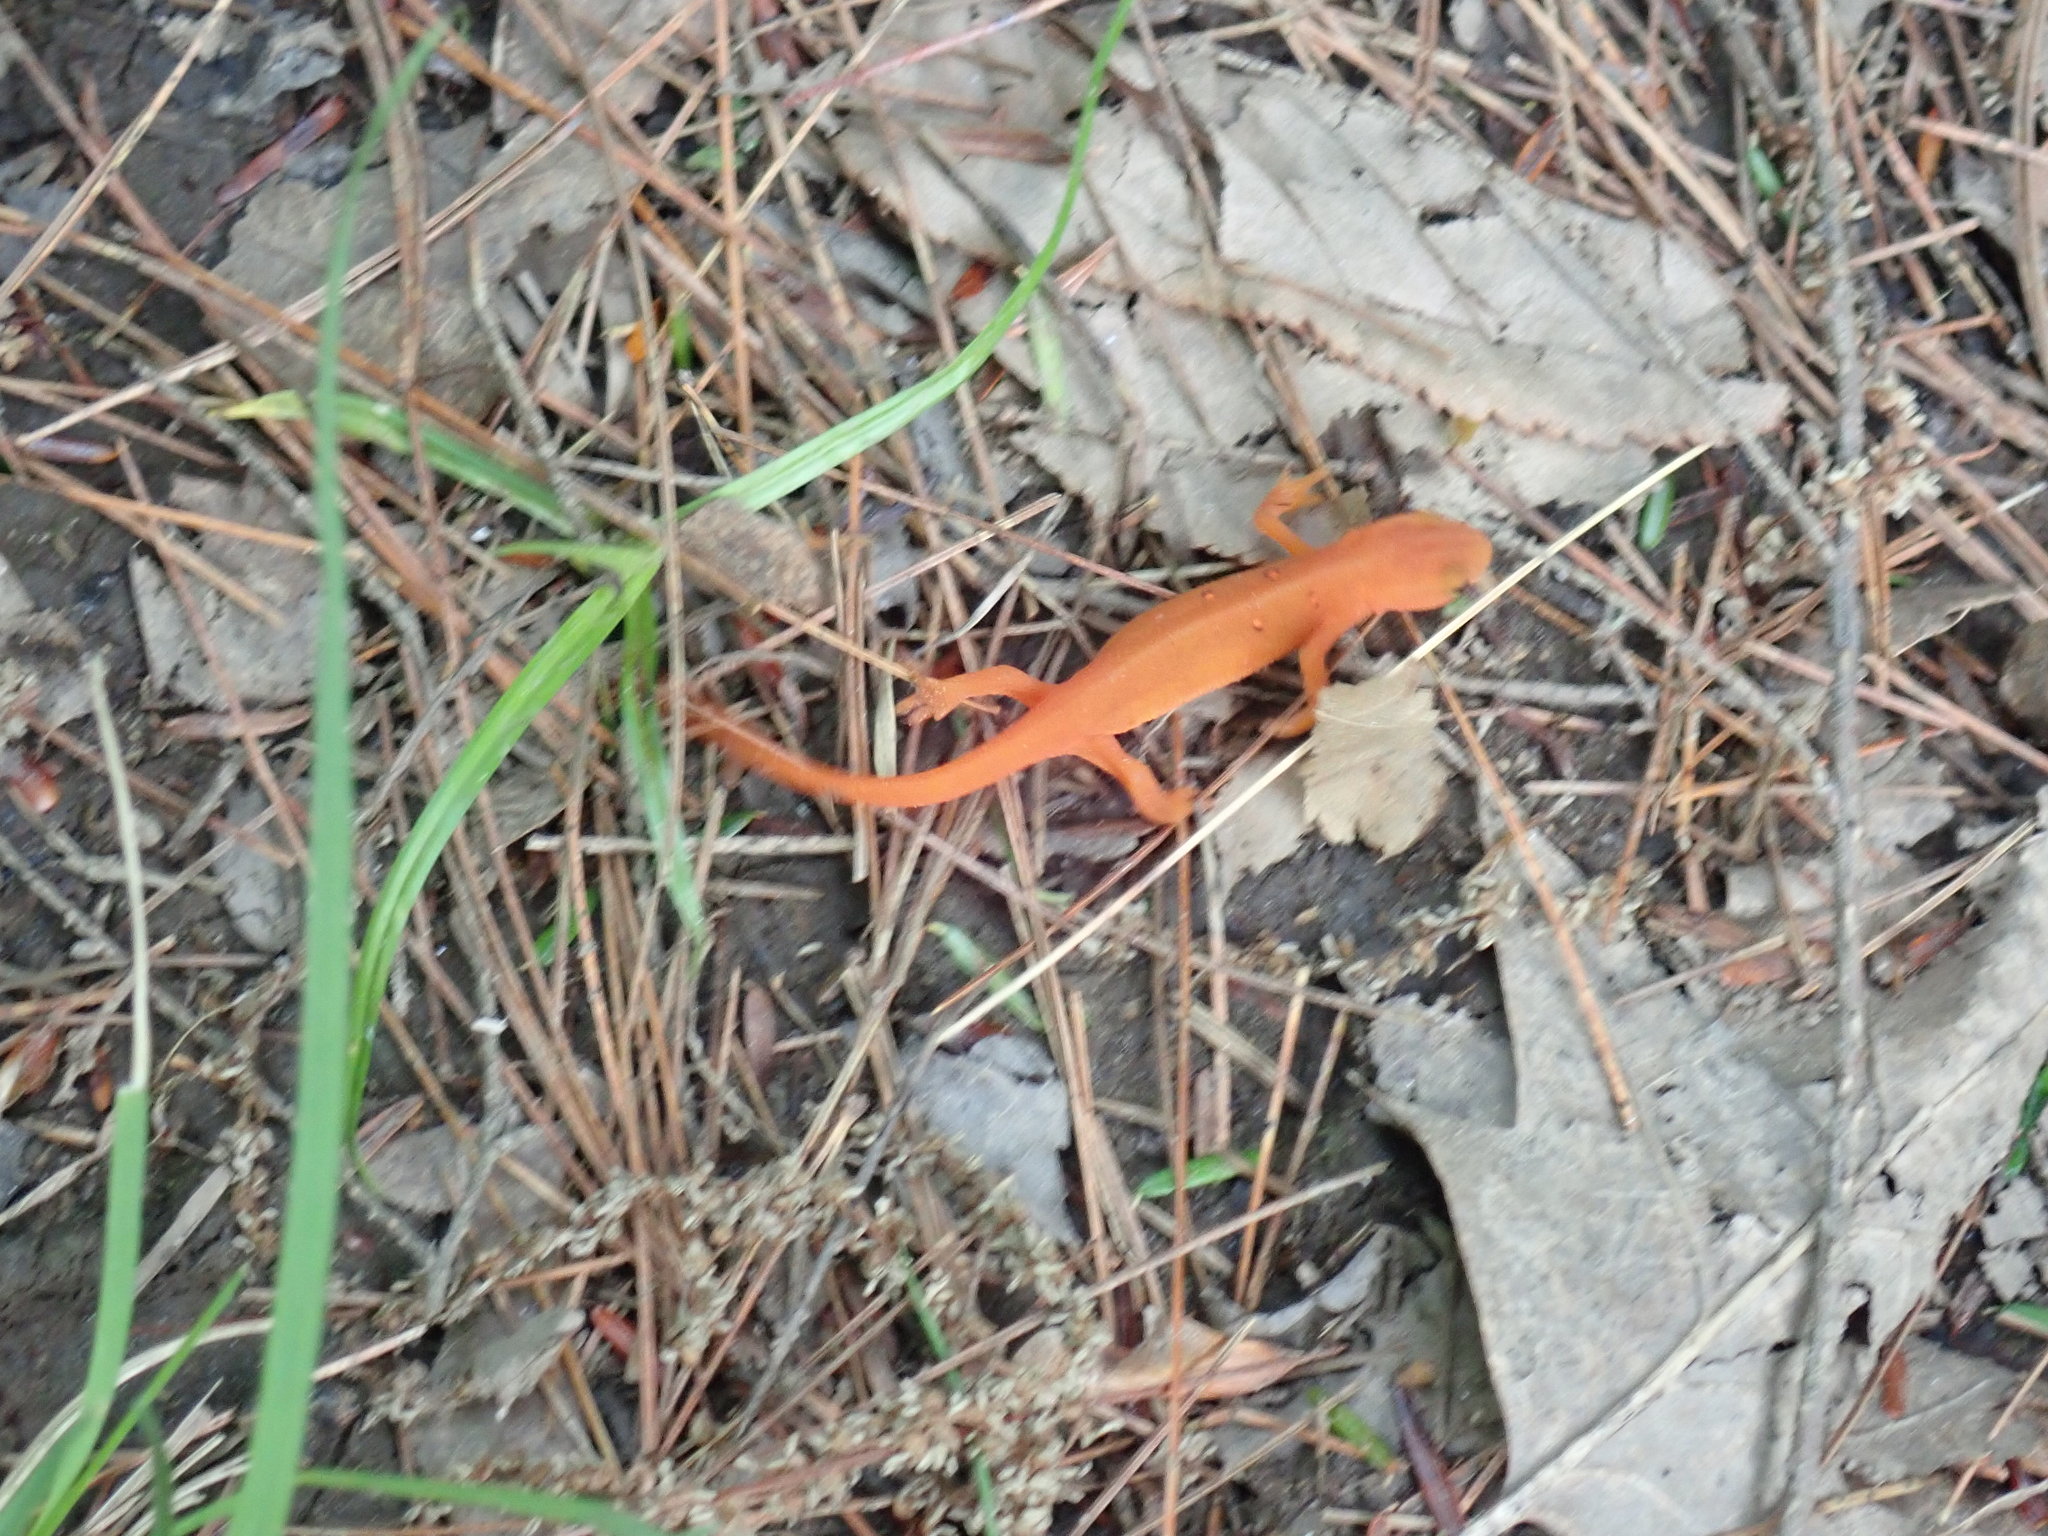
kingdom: Animalia
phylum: Chordata
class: Amphibia
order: Caudata
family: Salamandridae
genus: Notophthalmus
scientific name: Notophthalmus viridescens
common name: Eastern newt
